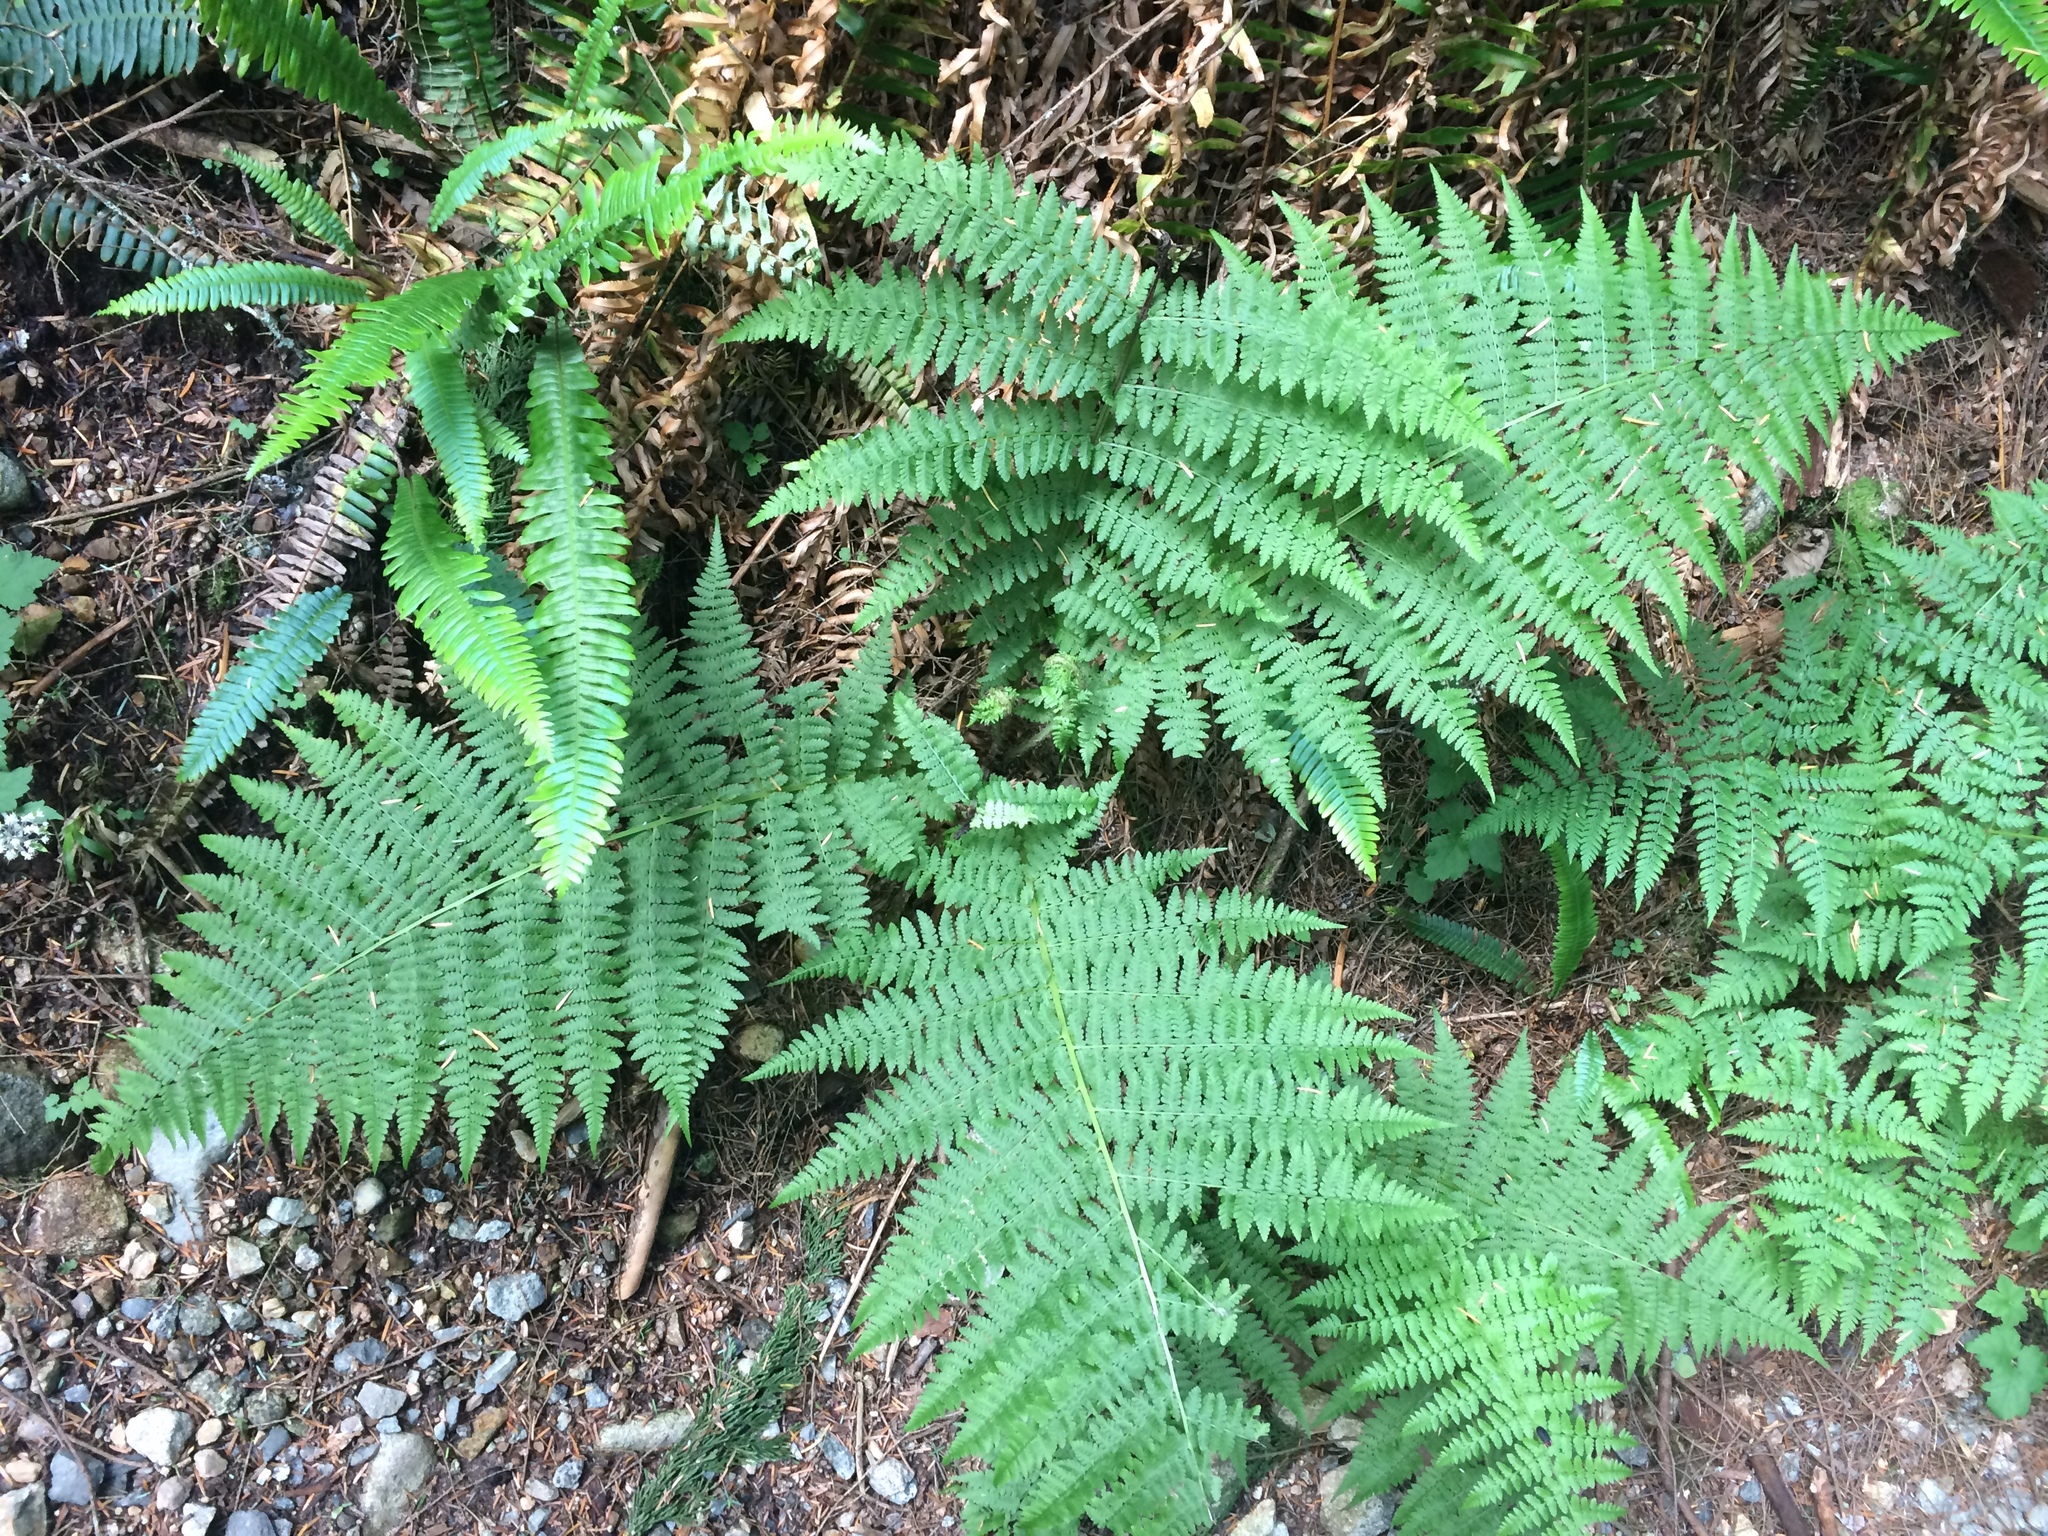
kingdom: Plantae
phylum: Tracheophyta
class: Polypodiopsida
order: Polypodiales
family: Athyriaceae
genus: Athyrium
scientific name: Athyrium filix-femina
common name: Lady fern
